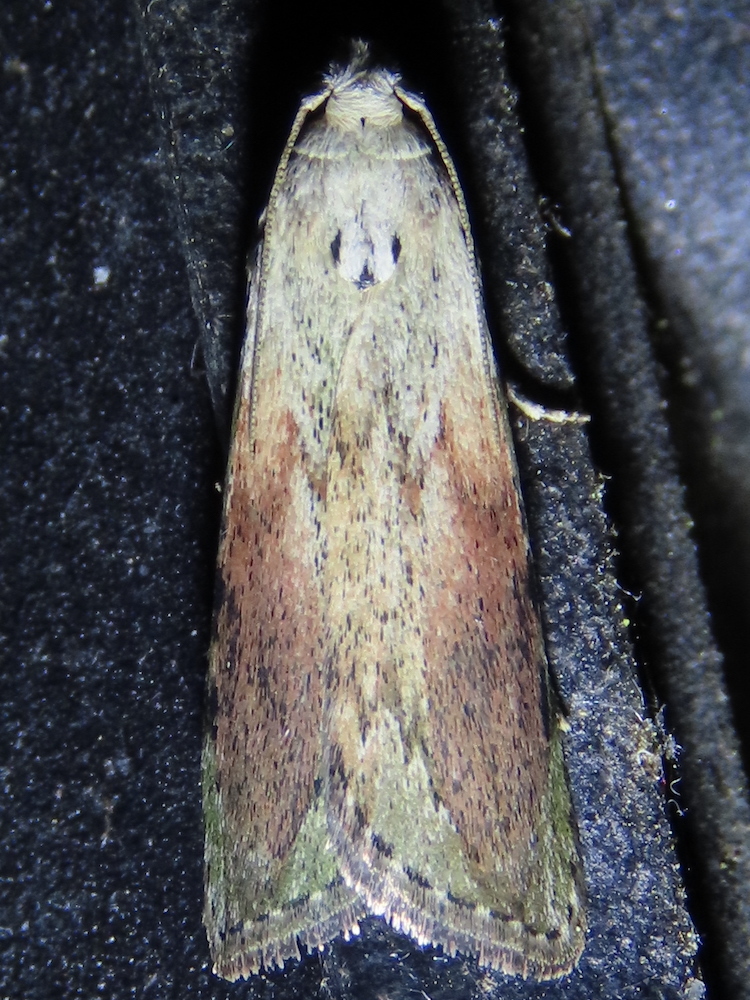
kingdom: Animalia
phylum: Arthropoda
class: Insecta
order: Lepidoptera
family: Pyralidae
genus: Aphomia
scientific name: Aphomia sociella
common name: Bee moth
